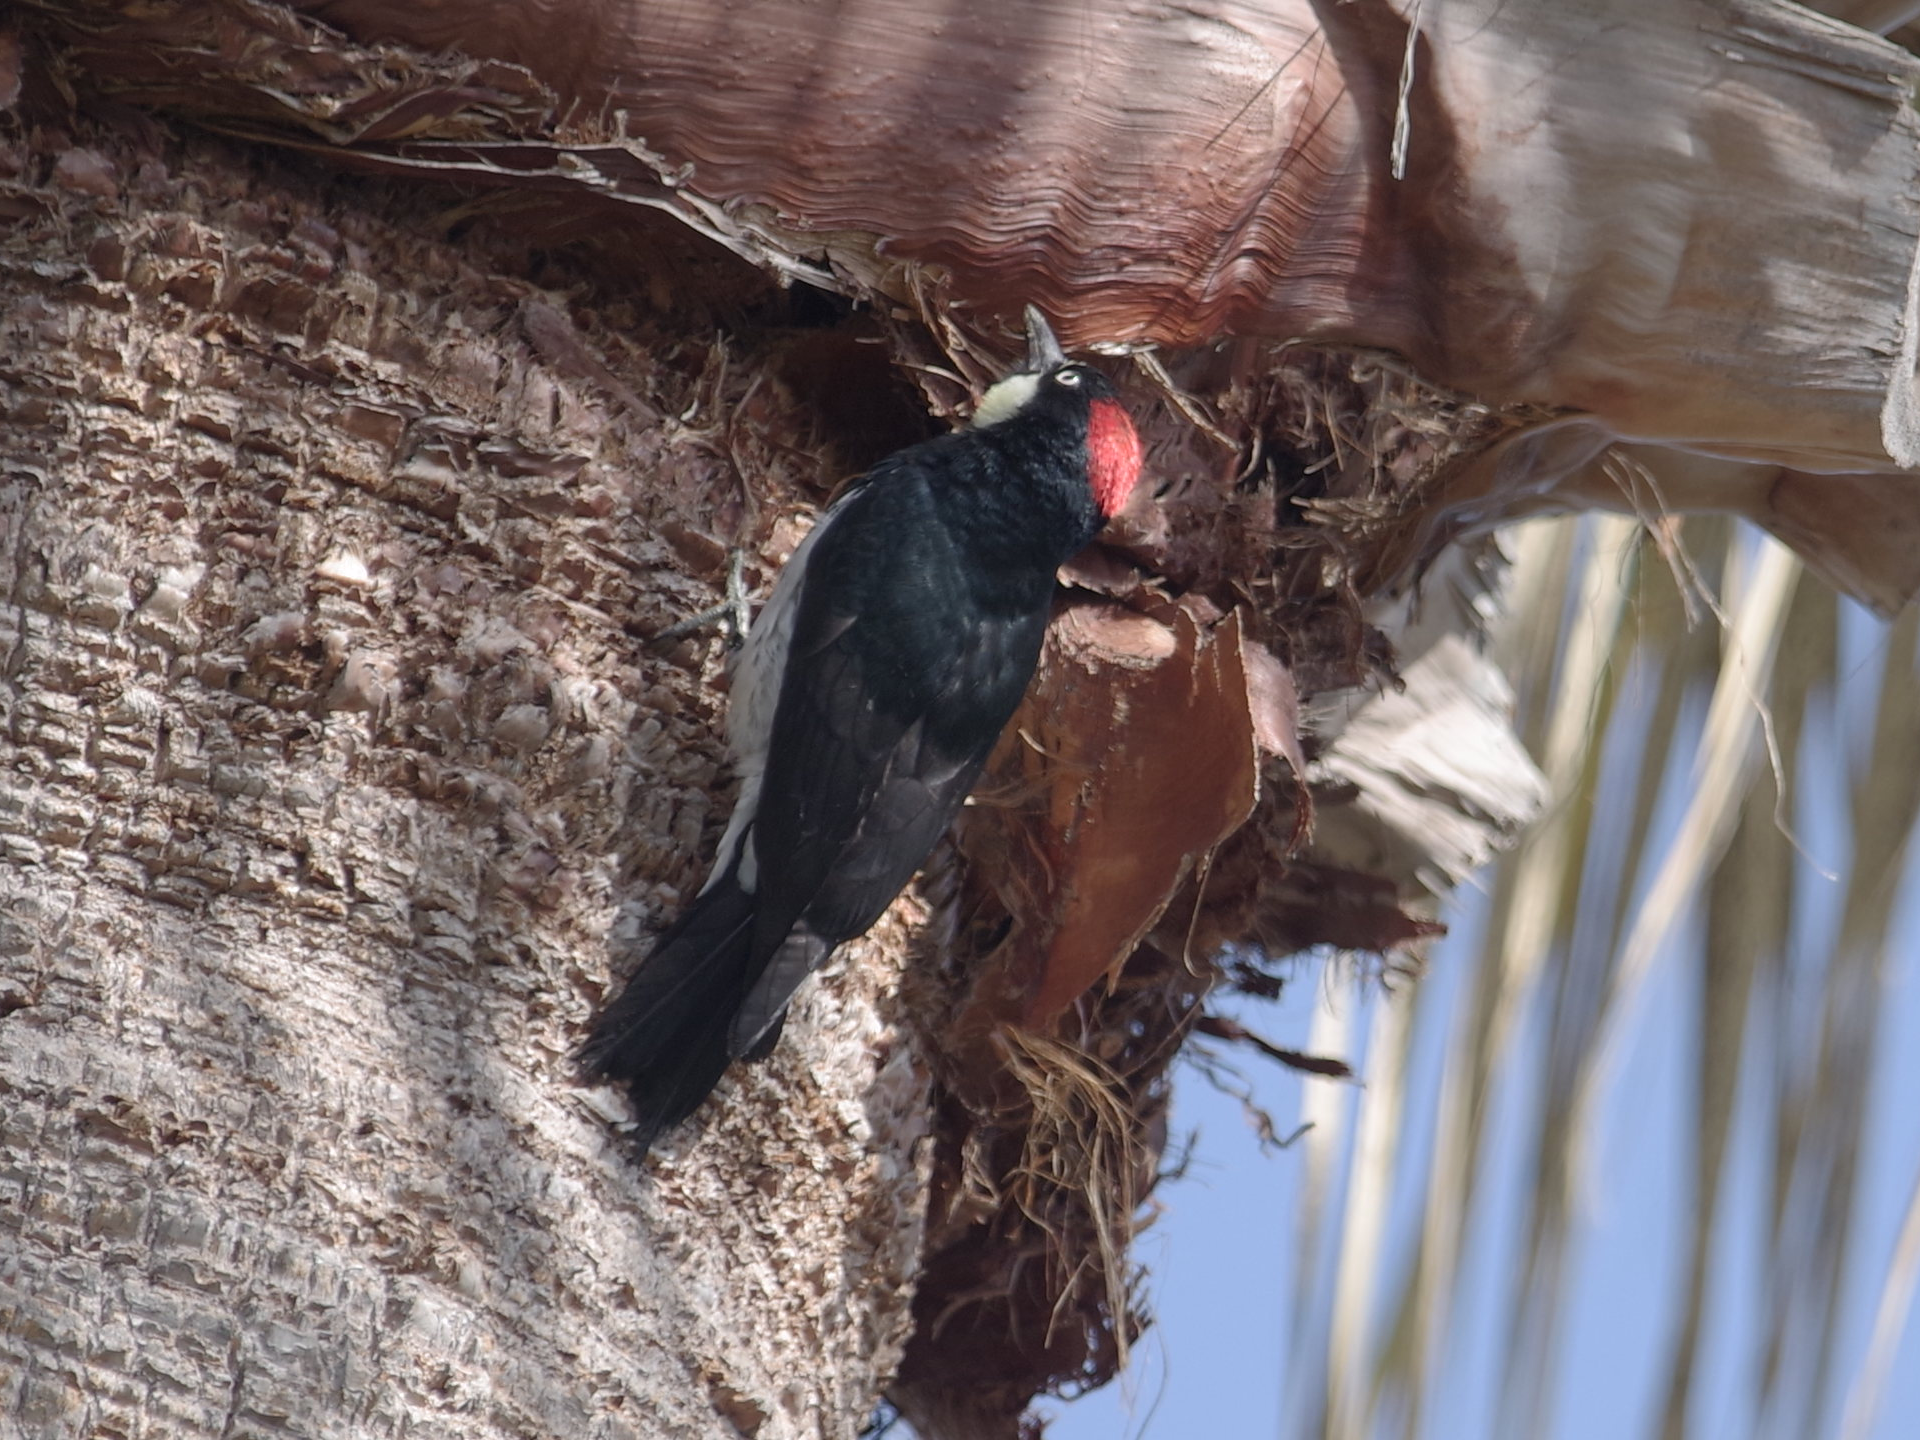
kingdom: Animalia
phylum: Chordata
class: Aves
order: Piciformes
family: Picidae
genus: Melanerpes
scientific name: Melanerpes formicivorus
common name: Acorn woodpecker
